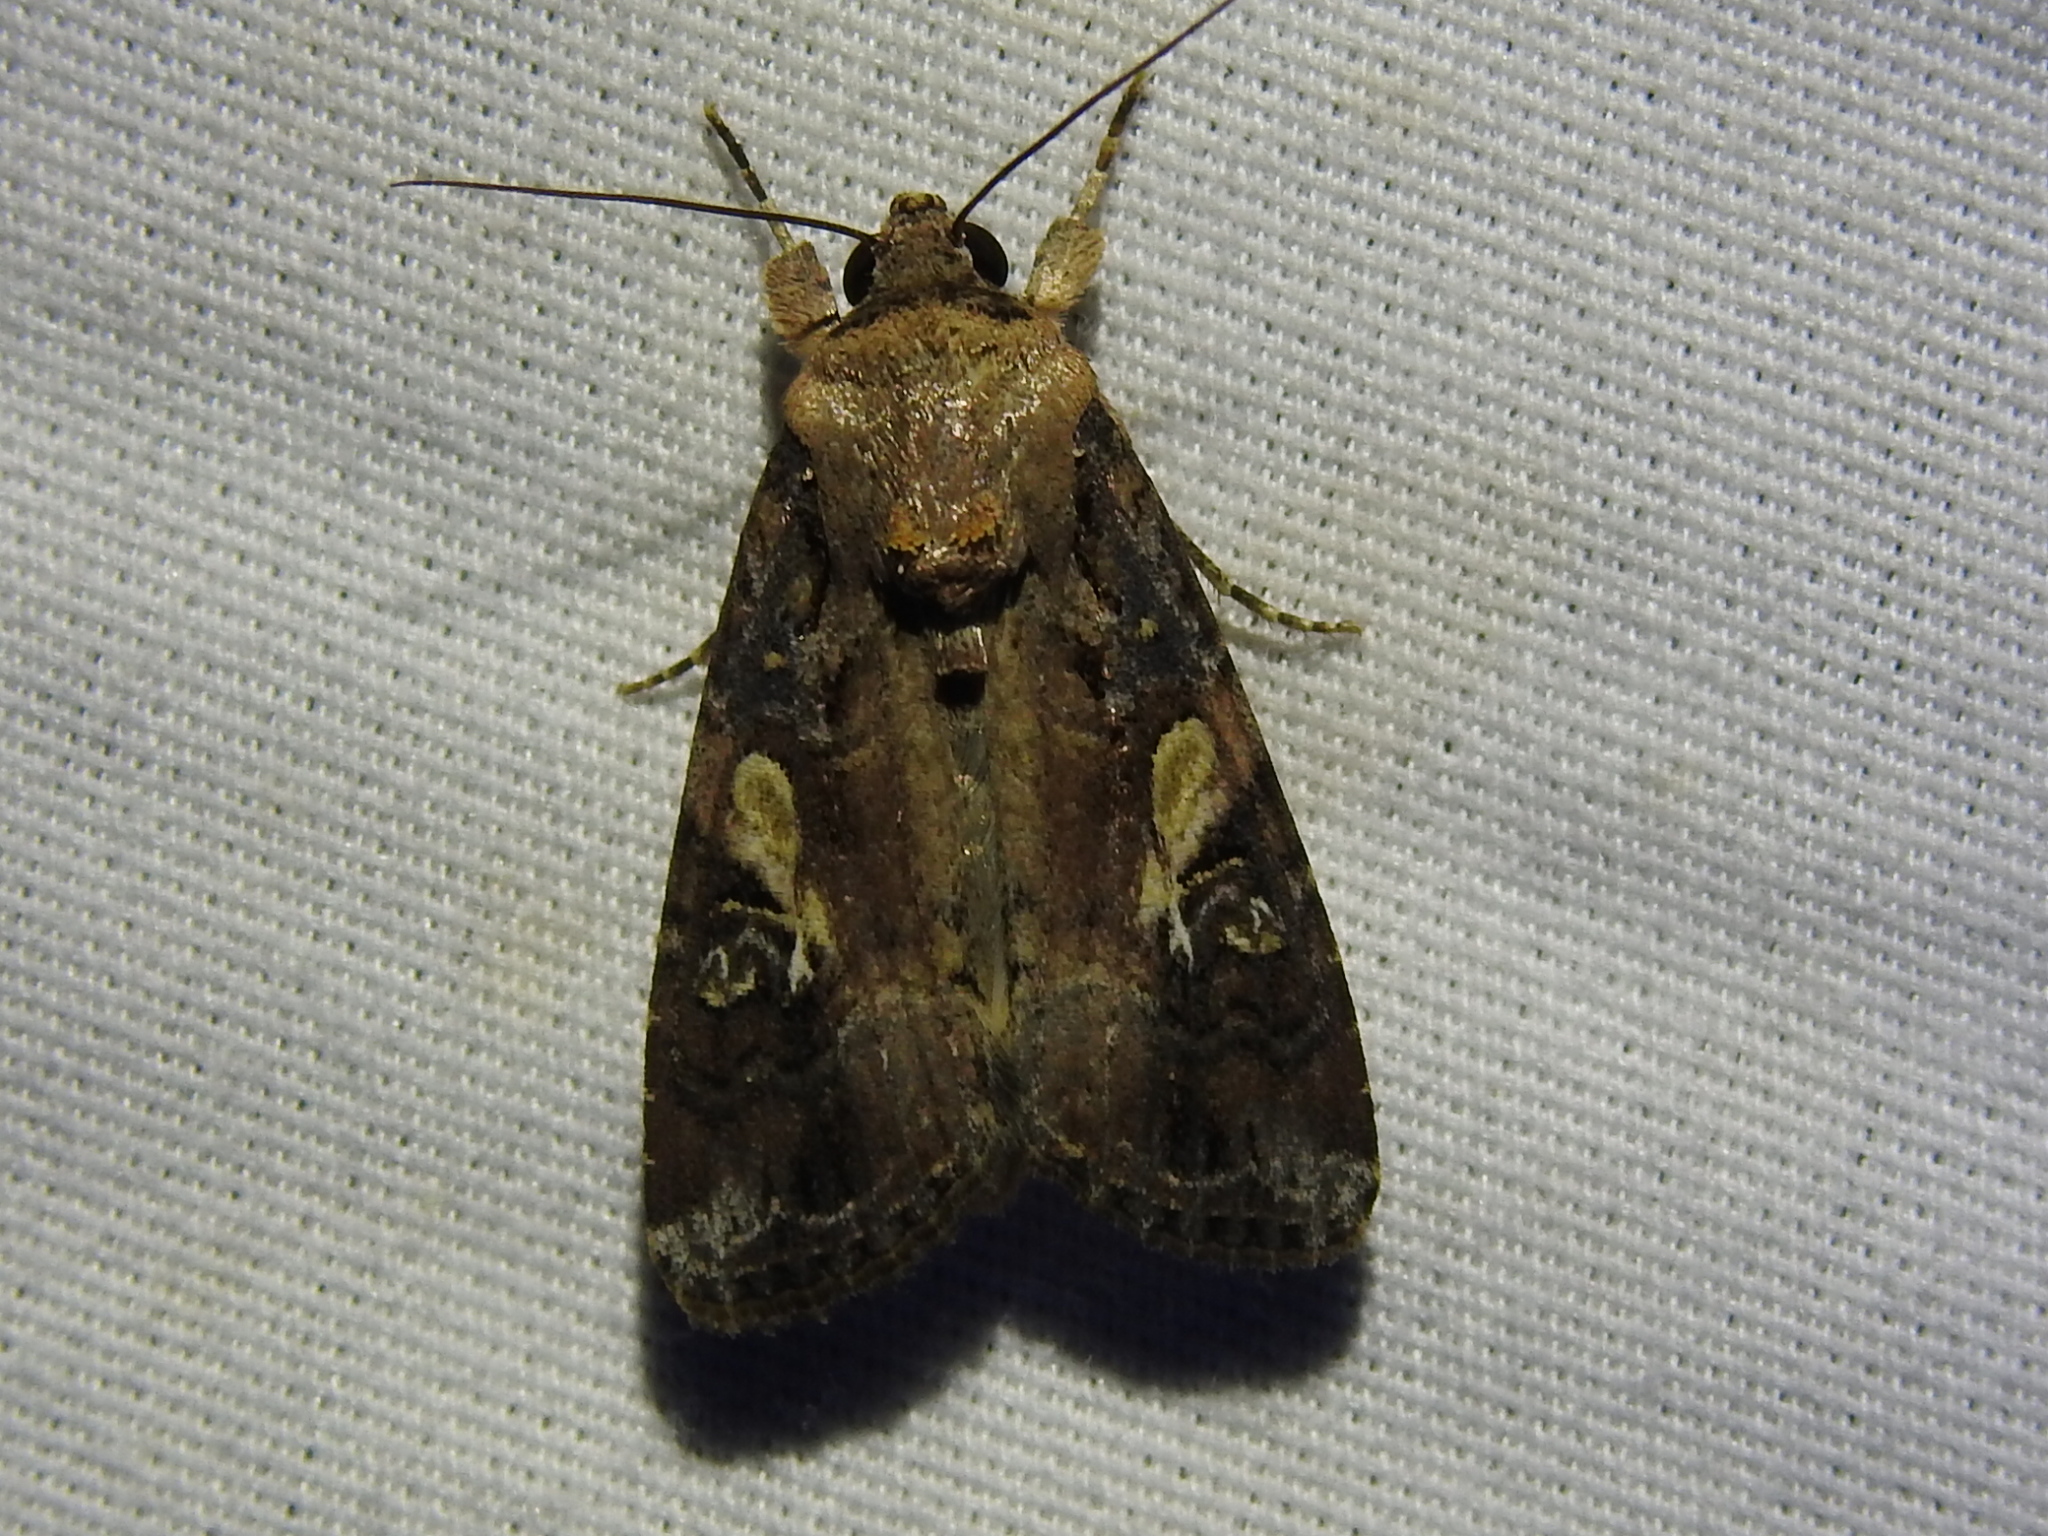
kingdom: Animalia
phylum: Arthropoda
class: Insecta
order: Lepidoptera
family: Noctuidae
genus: Spodoptera
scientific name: Spodoptera frugiperda
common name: Fall armyworm
